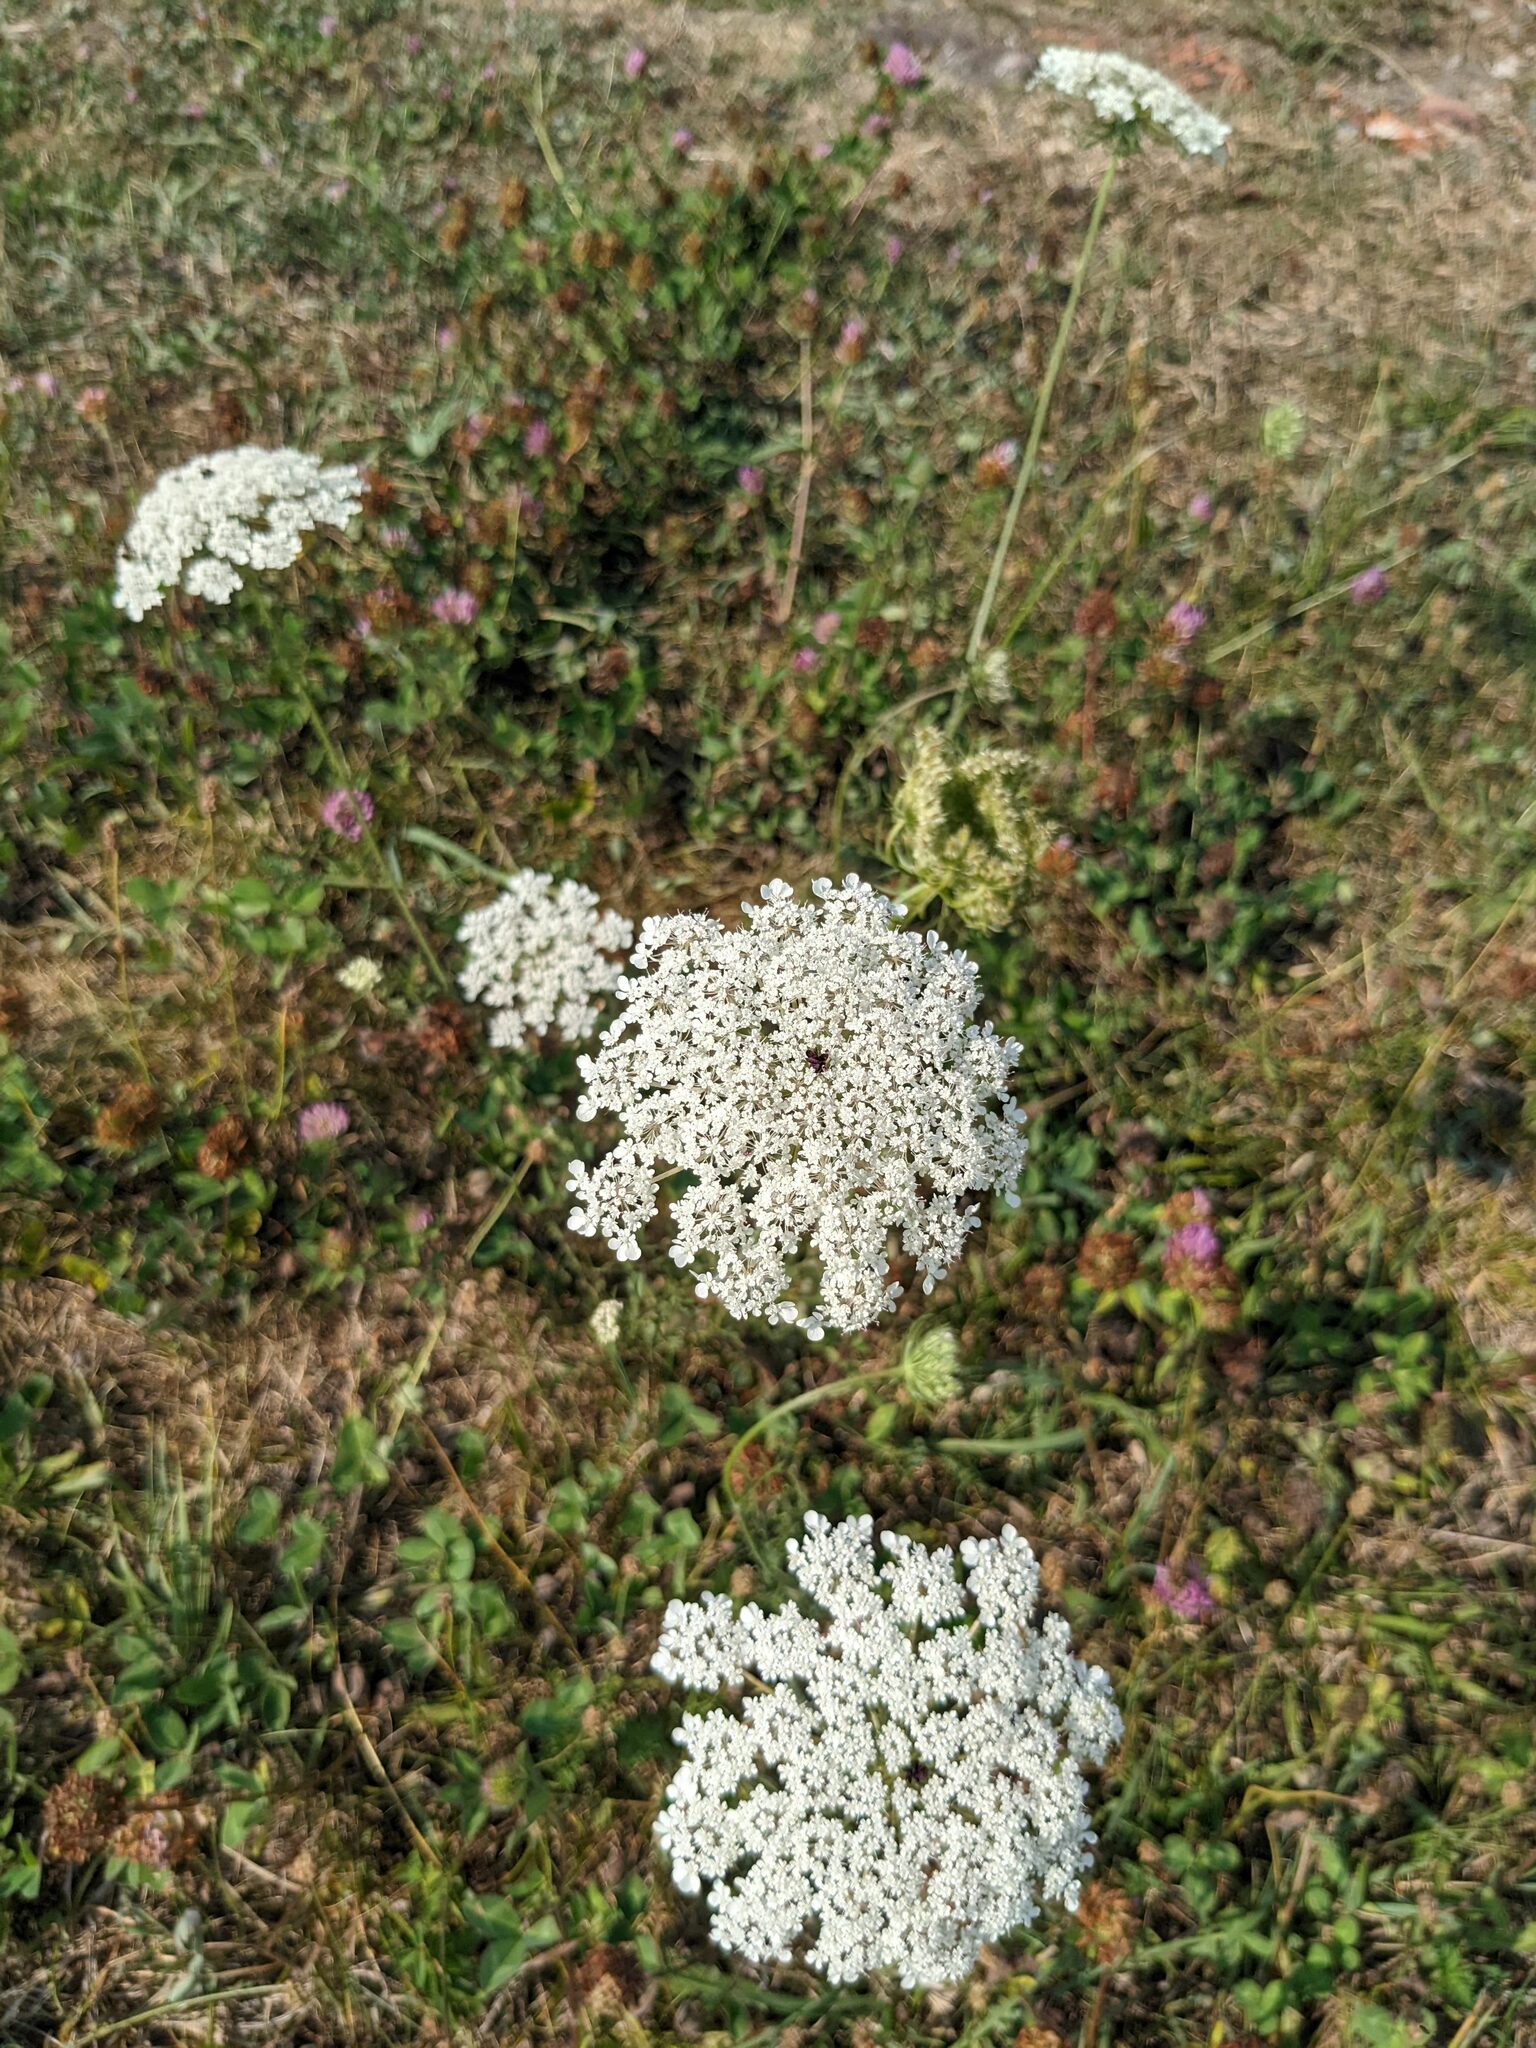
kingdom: Plantae
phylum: Tracheophyta
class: Magnoliopsida
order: Apiales
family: Apiaceae
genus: Daucus
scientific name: Daucus carota
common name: Wild carrot
